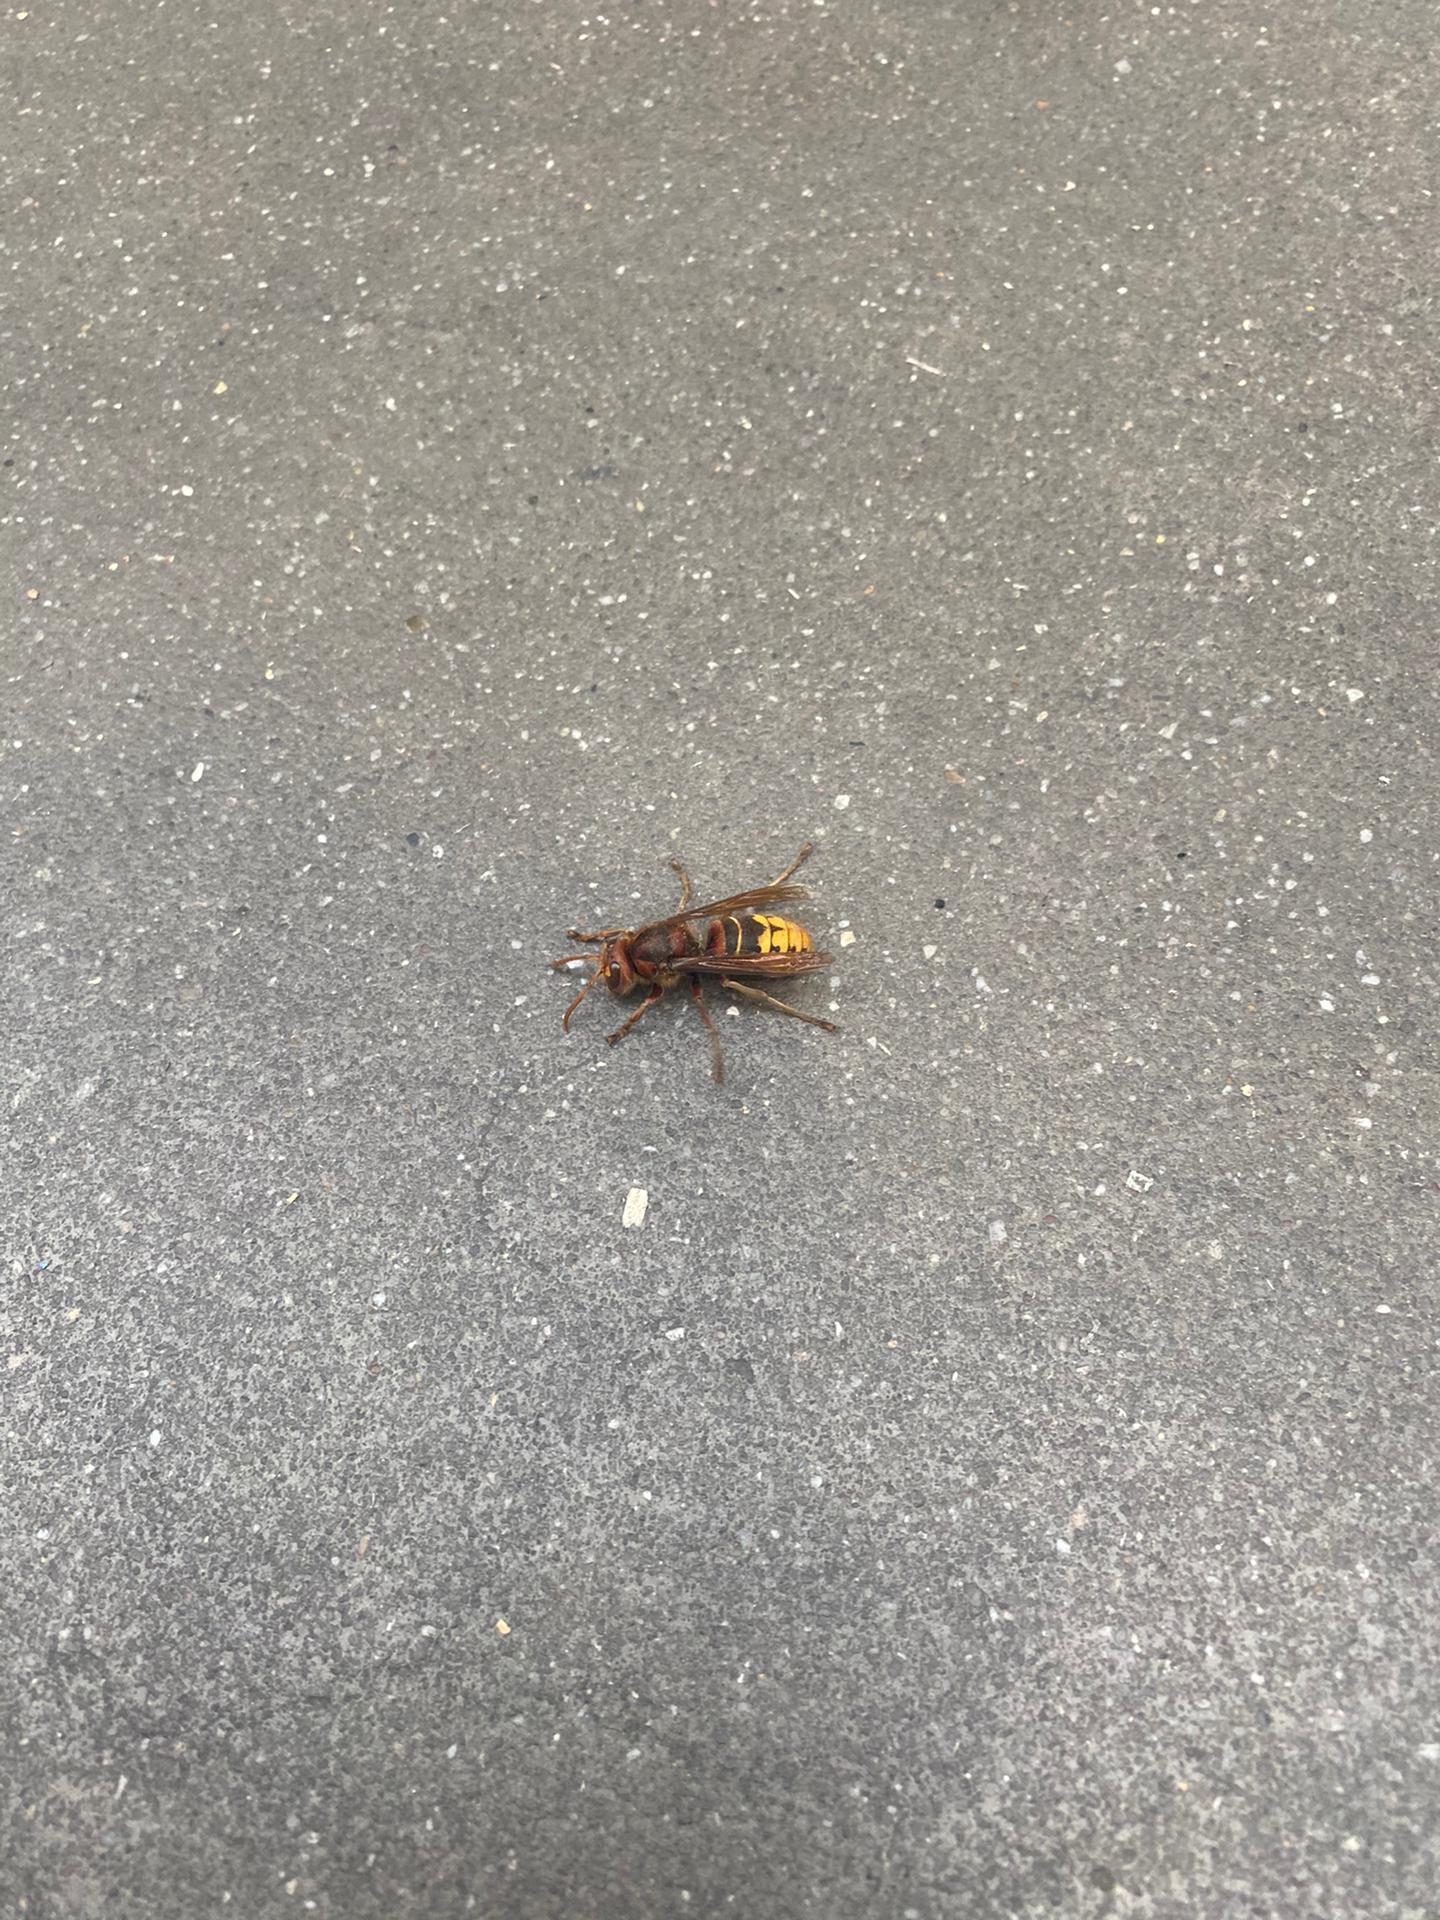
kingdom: Animalia
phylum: Arthropoda
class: Insecta
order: Hymenoptera
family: Vespidae
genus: Vespa
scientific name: Vespa crabro
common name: Hornet
